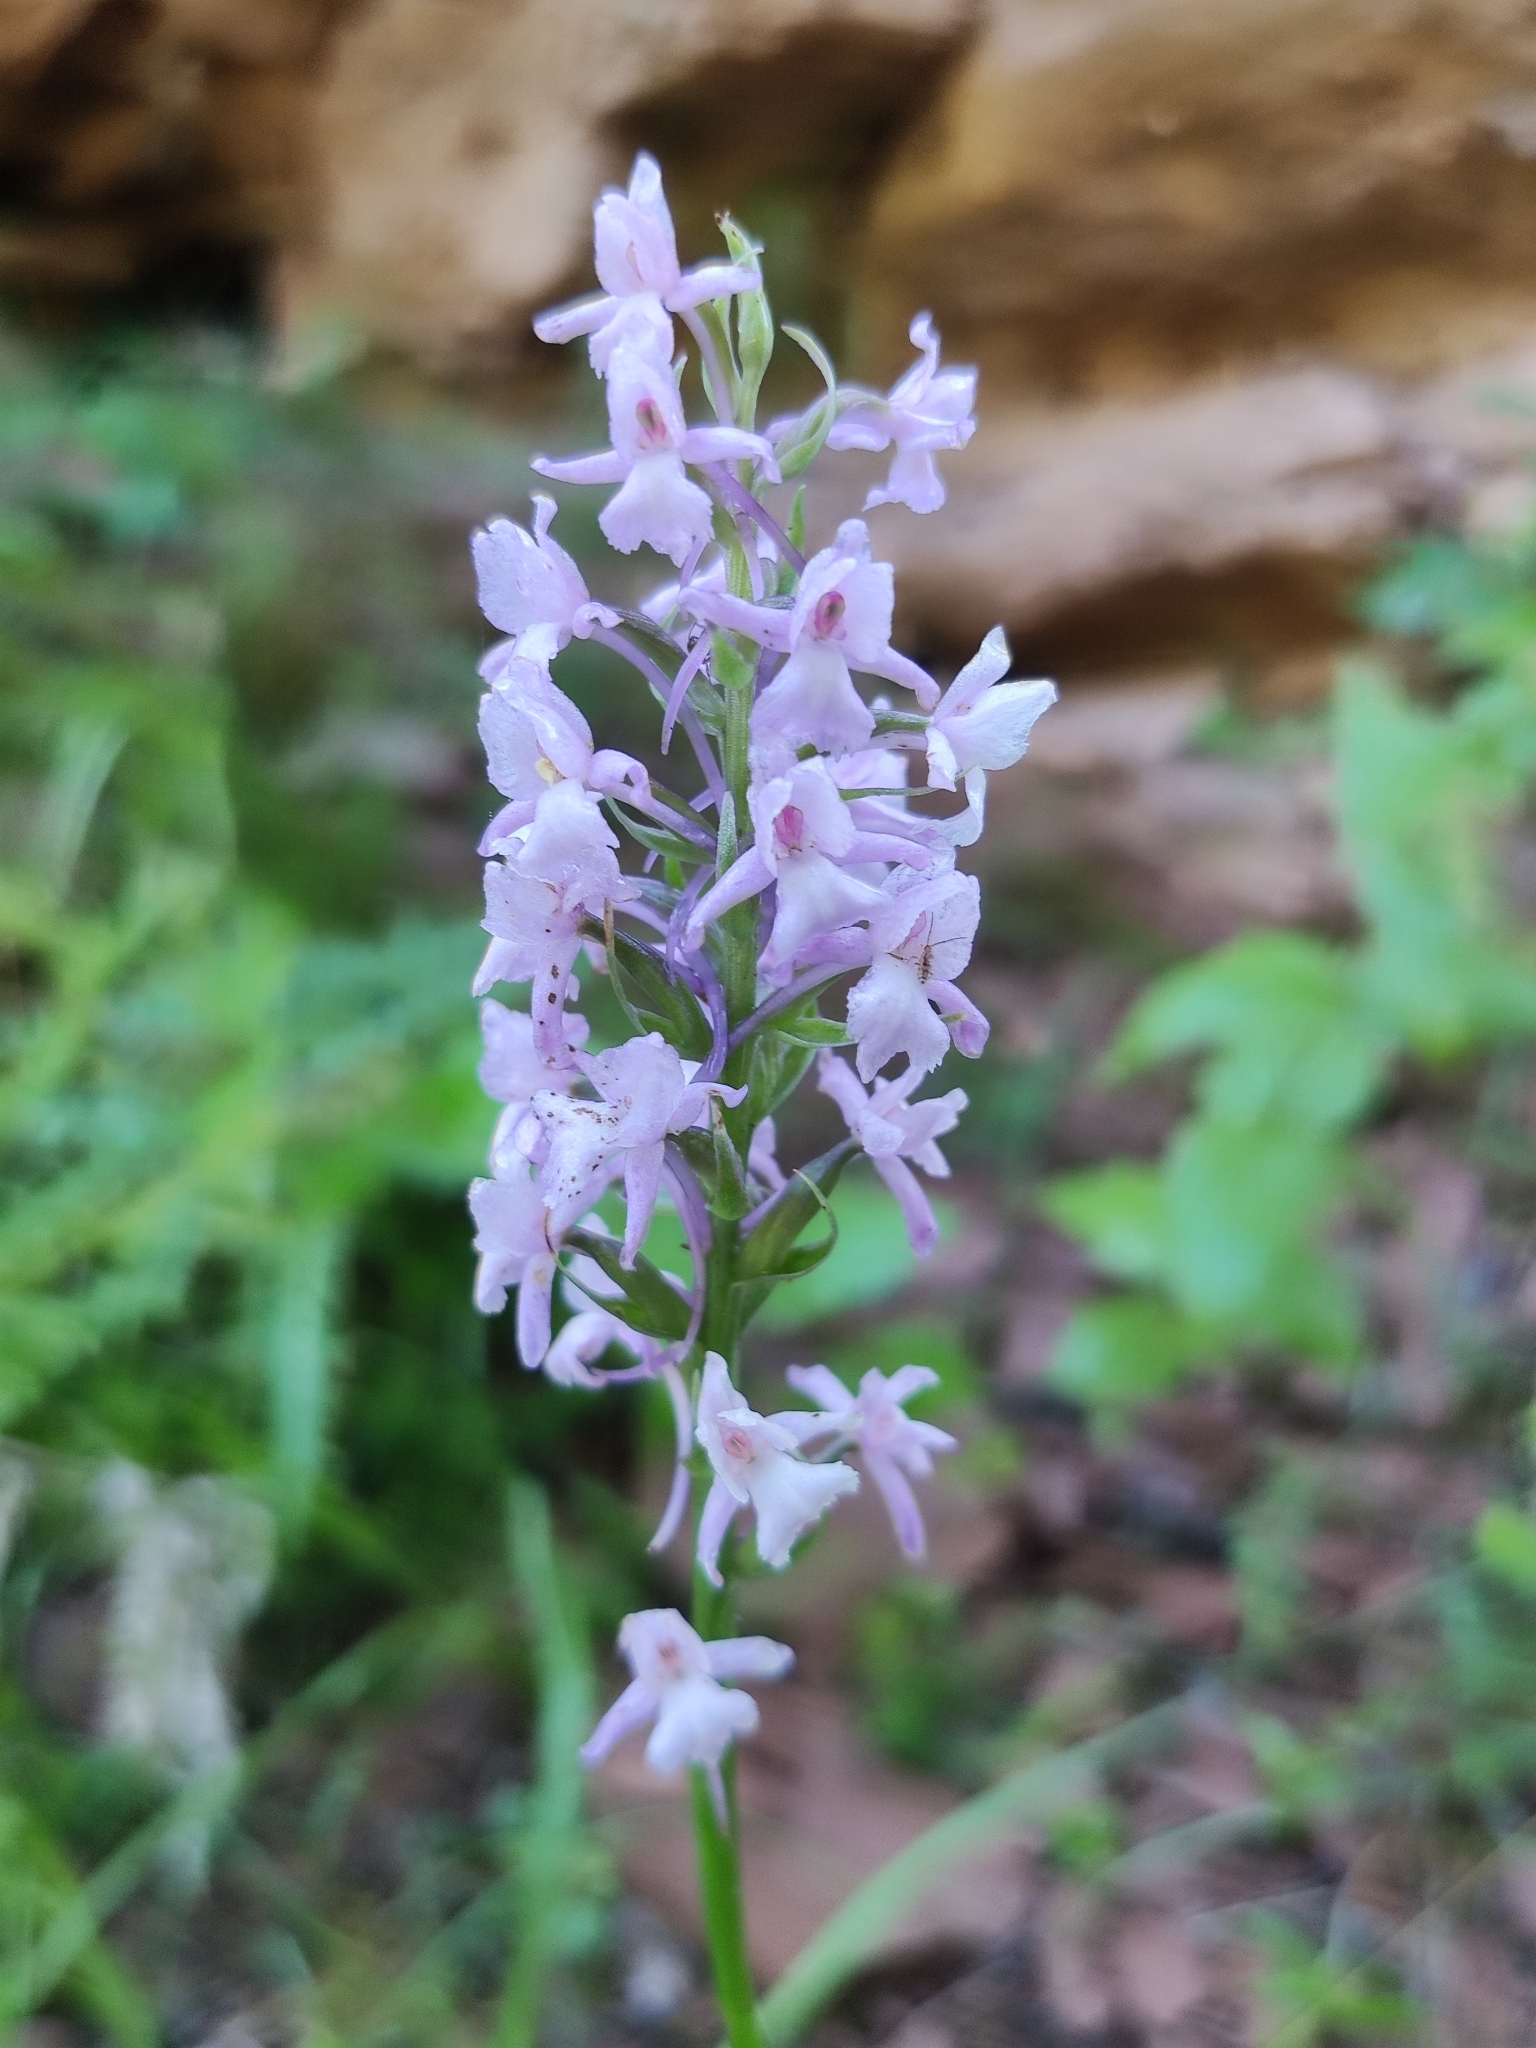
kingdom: Plantae
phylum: Tracheophyta
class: Liliopsida
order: Asparagales
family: Orchidaceae
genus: Gymnadenia
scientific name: Gymnadenia conopsea
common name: Fragrant orchid
